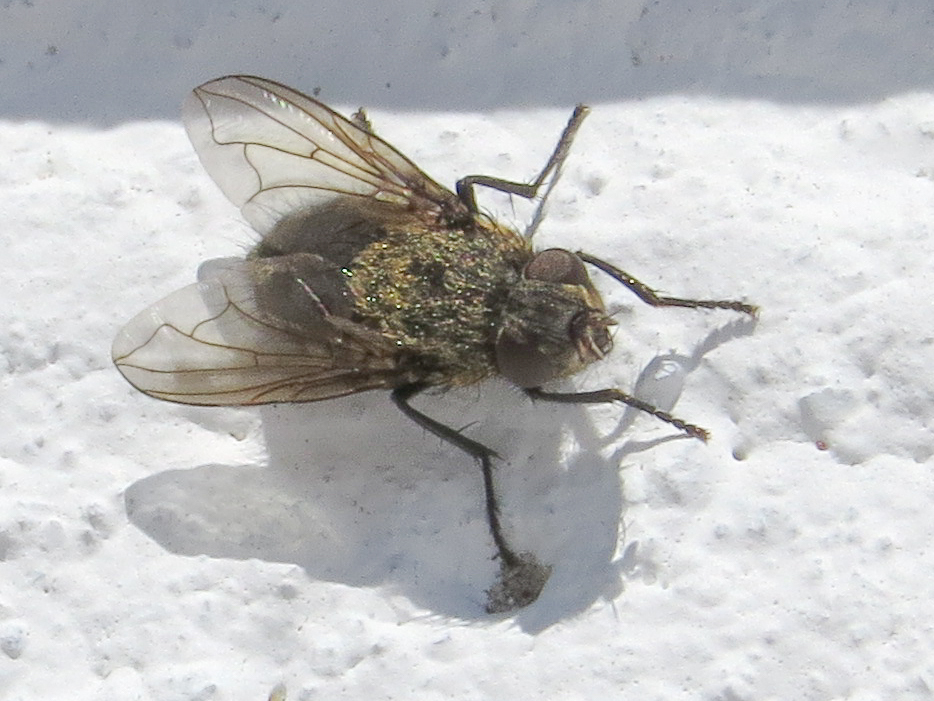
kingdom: Animalia
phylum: Arthropoda
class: Insecta
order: Diptera
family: Polleniidae
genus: Pollenia
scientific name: Pollenia
